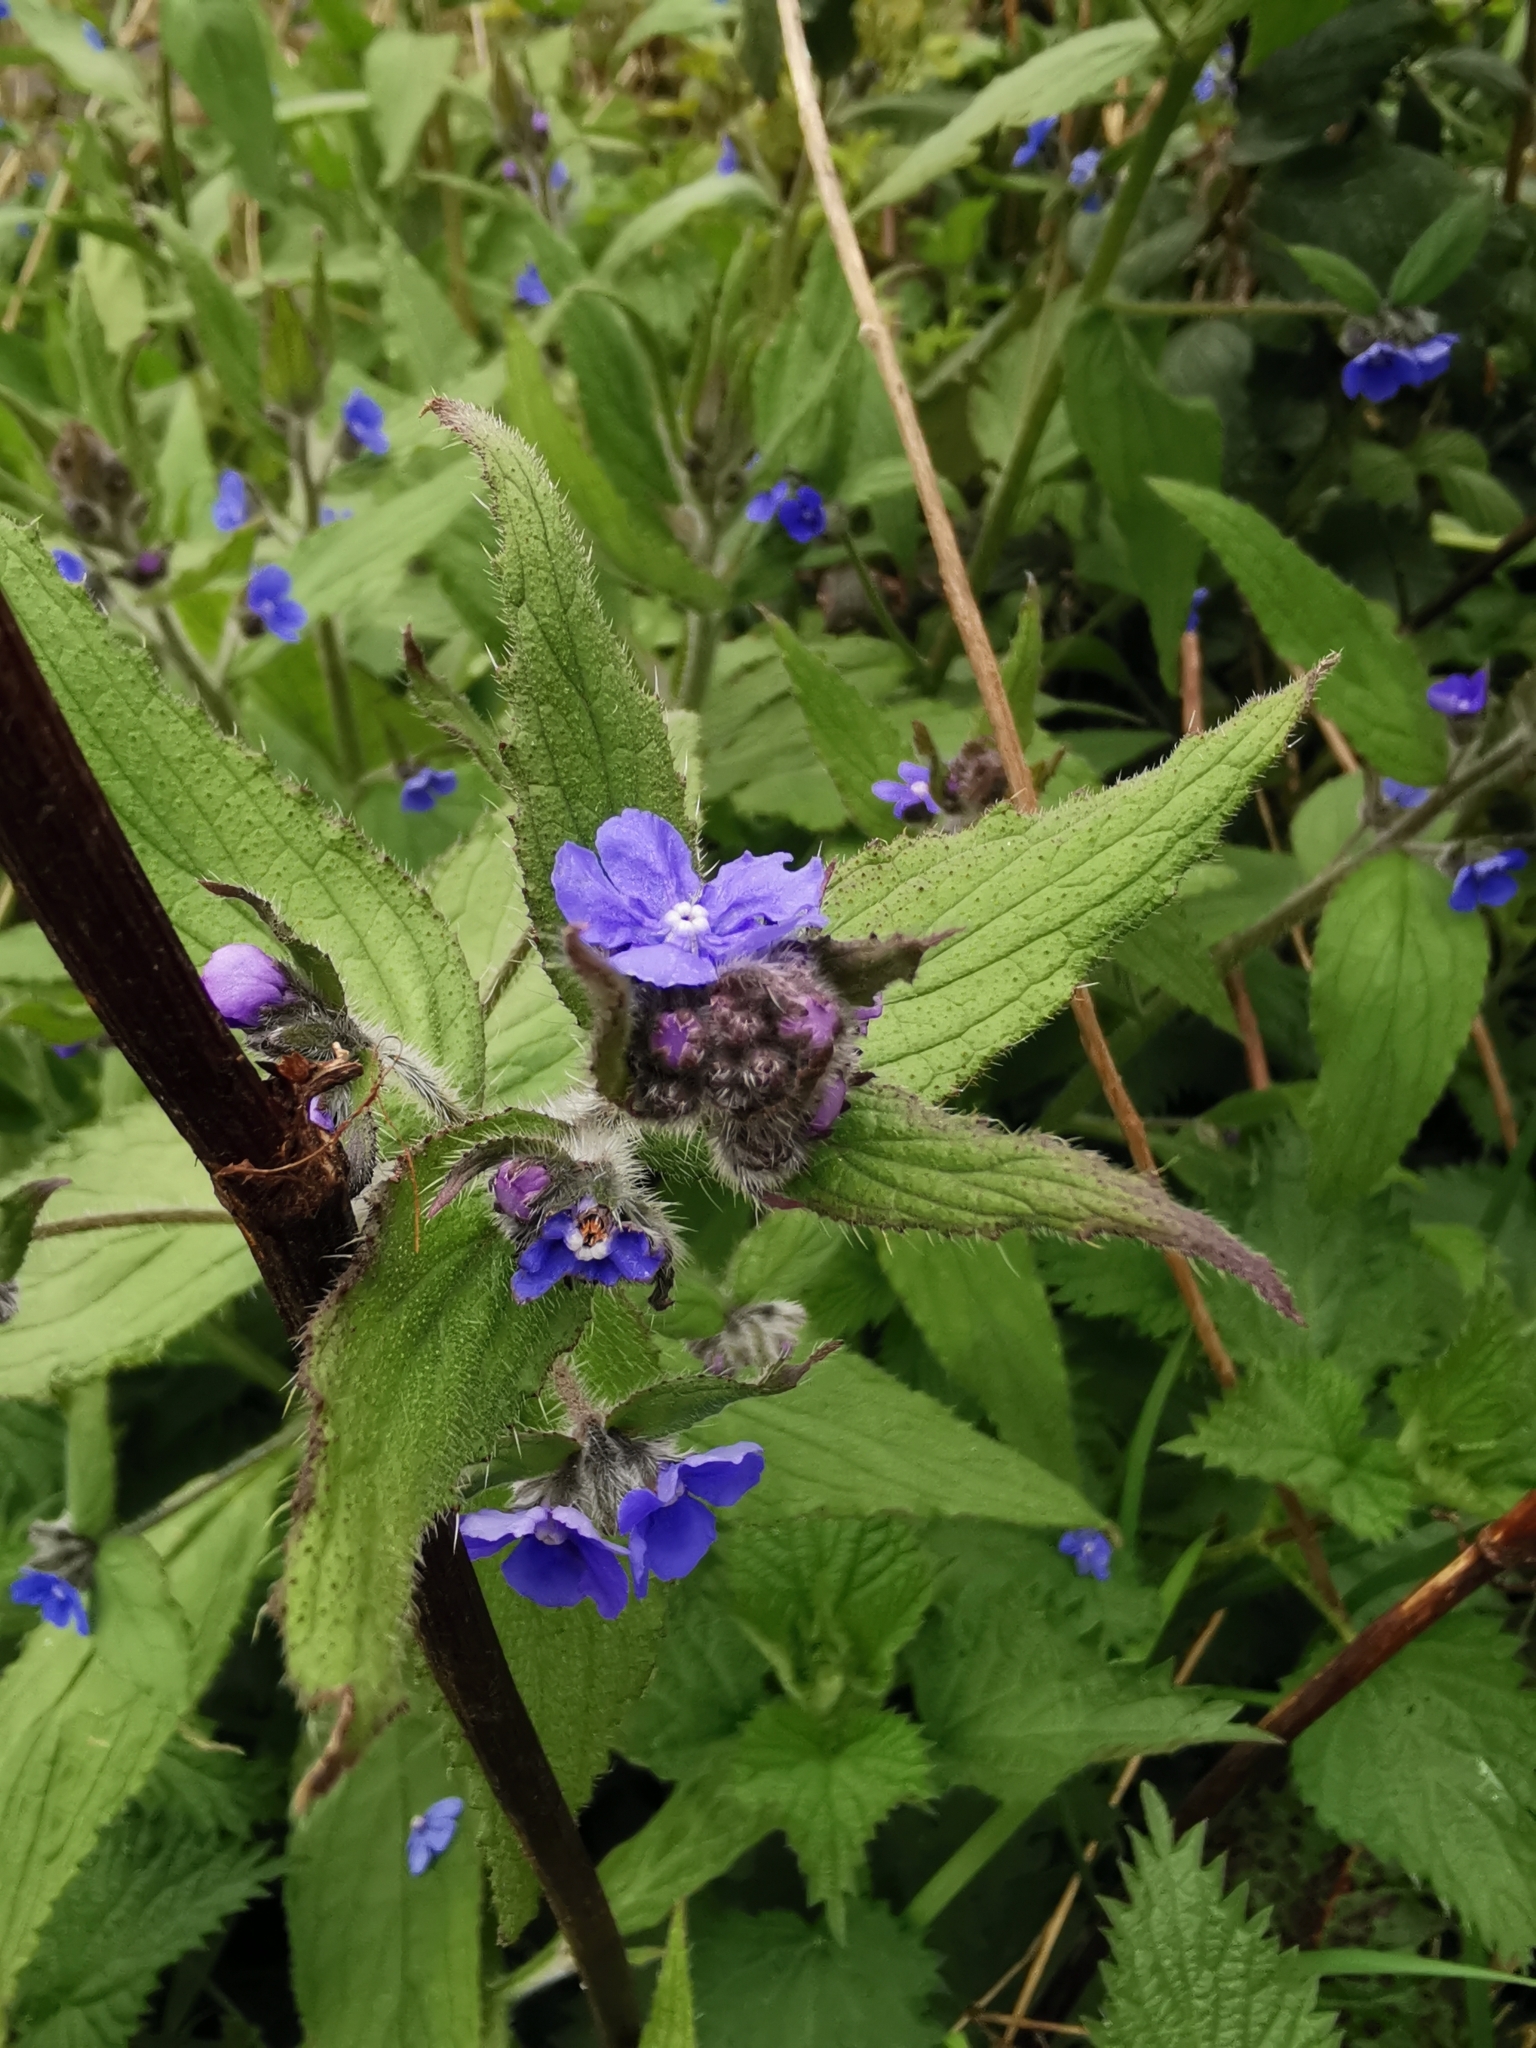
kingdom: Plantae
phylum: Tracheophyta
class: Magnoliopsida
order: Boraginales
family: Boraginaceae
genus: Pentaglottis
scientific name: Pentaglottis sempervirens
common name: Green alkanet
